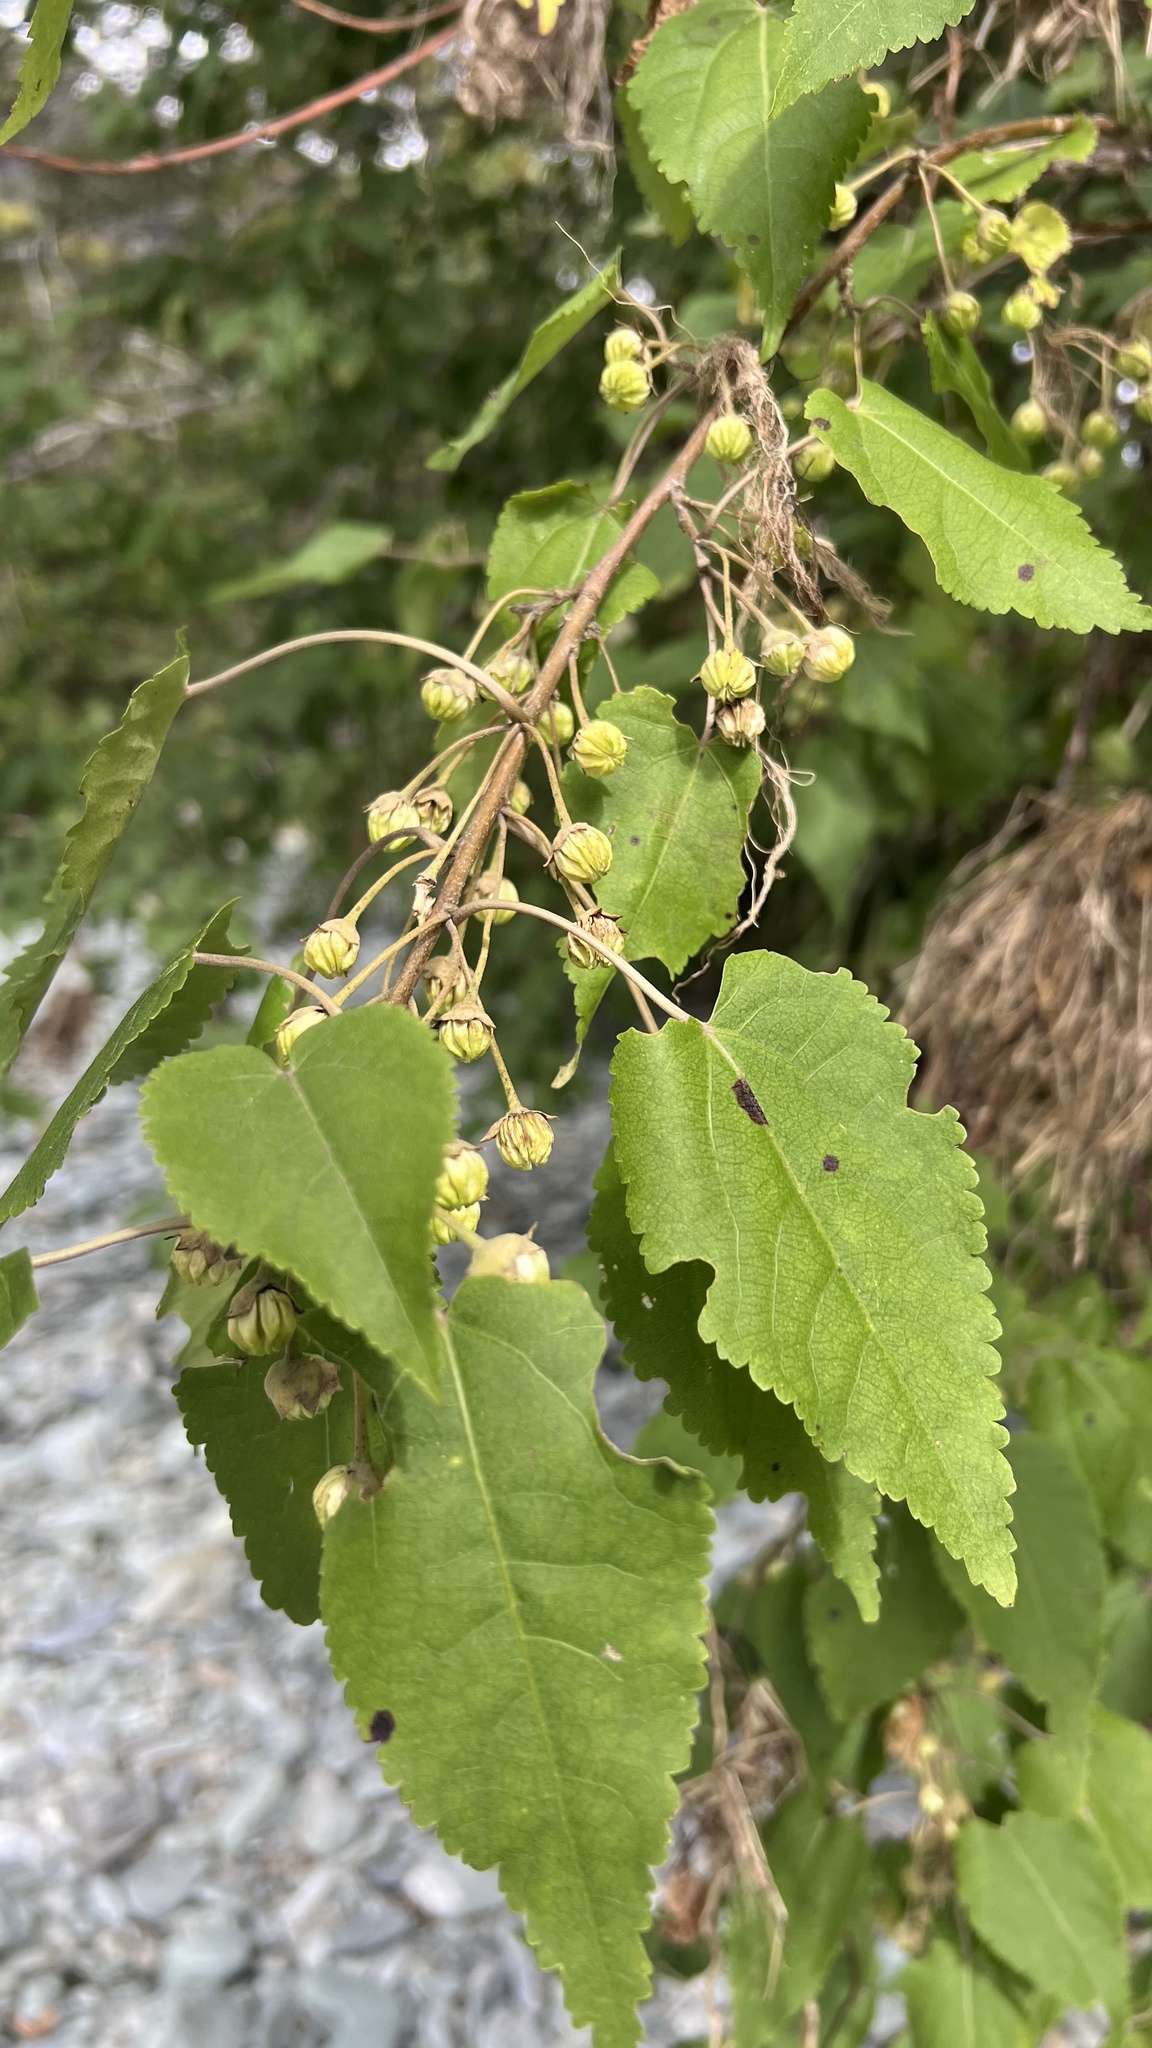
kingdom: Plantae
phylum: Tracheophyta
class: Magnoliopsida
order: Malvales
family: Malvaceae
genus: Hoheria
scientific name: Hoheria glabrata
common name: Mountain-ribbon
